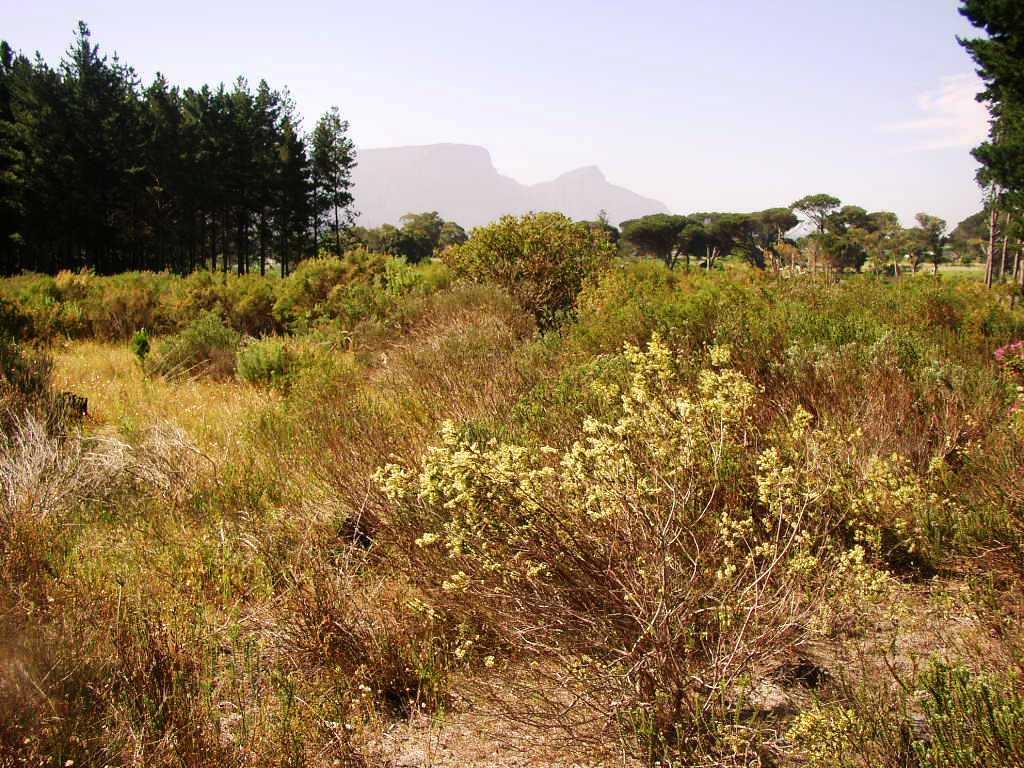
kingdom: Plantae
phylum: Tracheophyta
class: Magnoliopsida
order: Malvales
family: Thymelaeaceae
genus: Struthiola
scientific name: Struthiola striata
